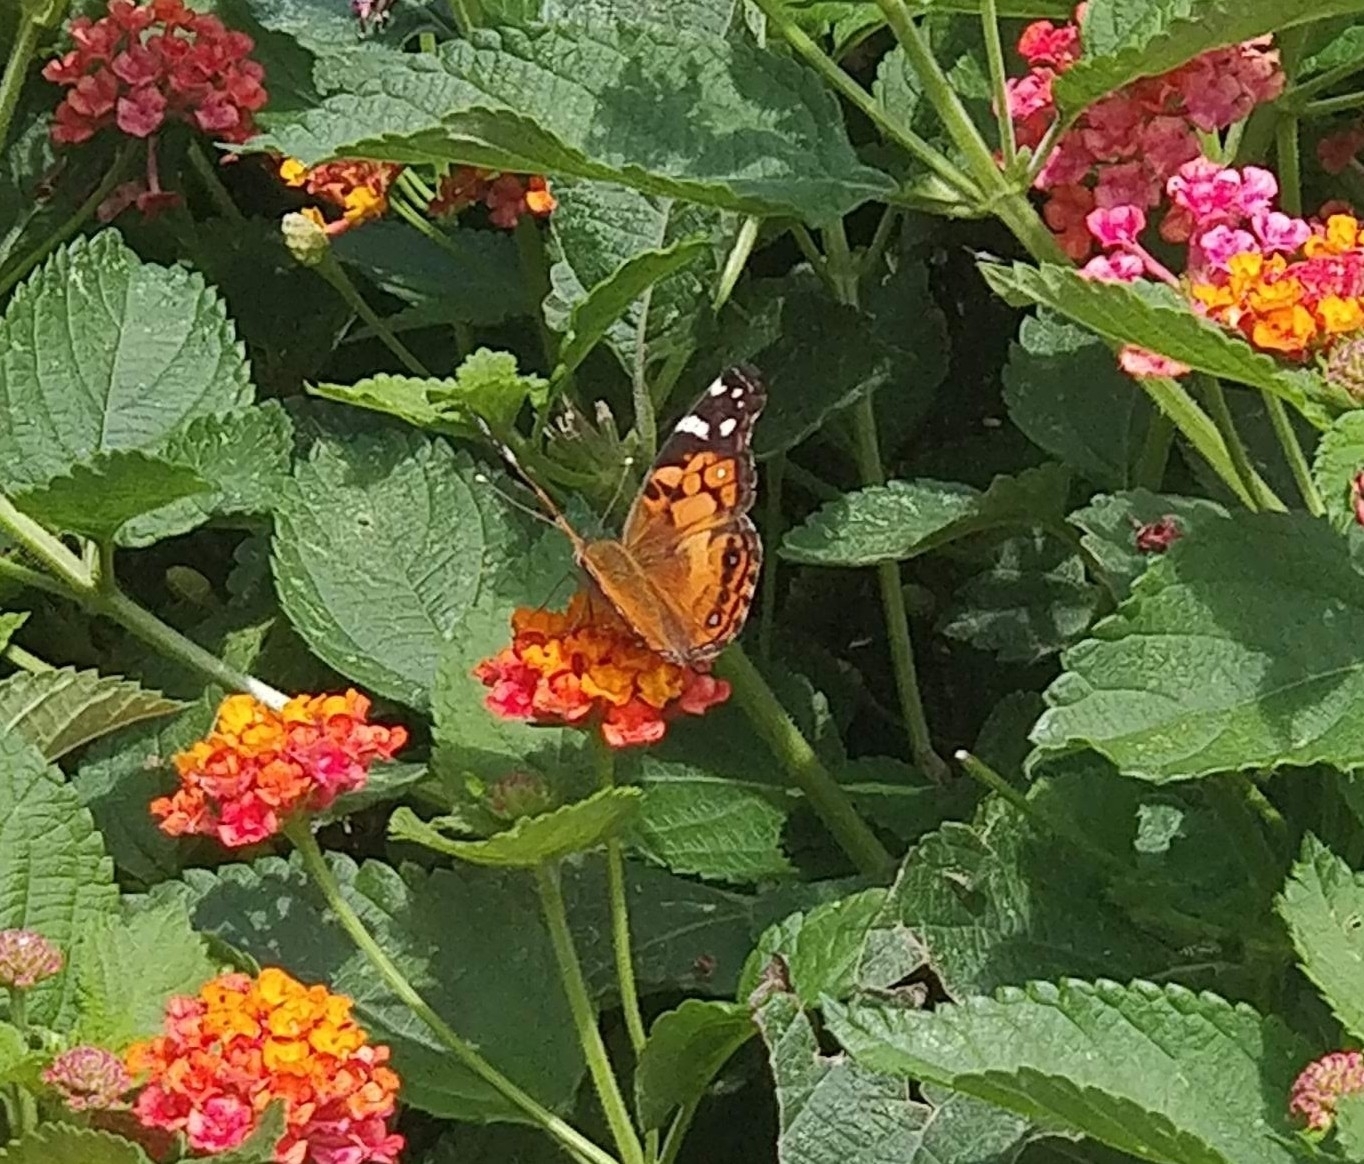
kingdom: Animalia
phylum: Arthropoda
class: Insecta
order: Lepidoptera
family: Nymphalidae
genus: Vanessa
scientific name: Vanessa virginiensis
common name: American lady
